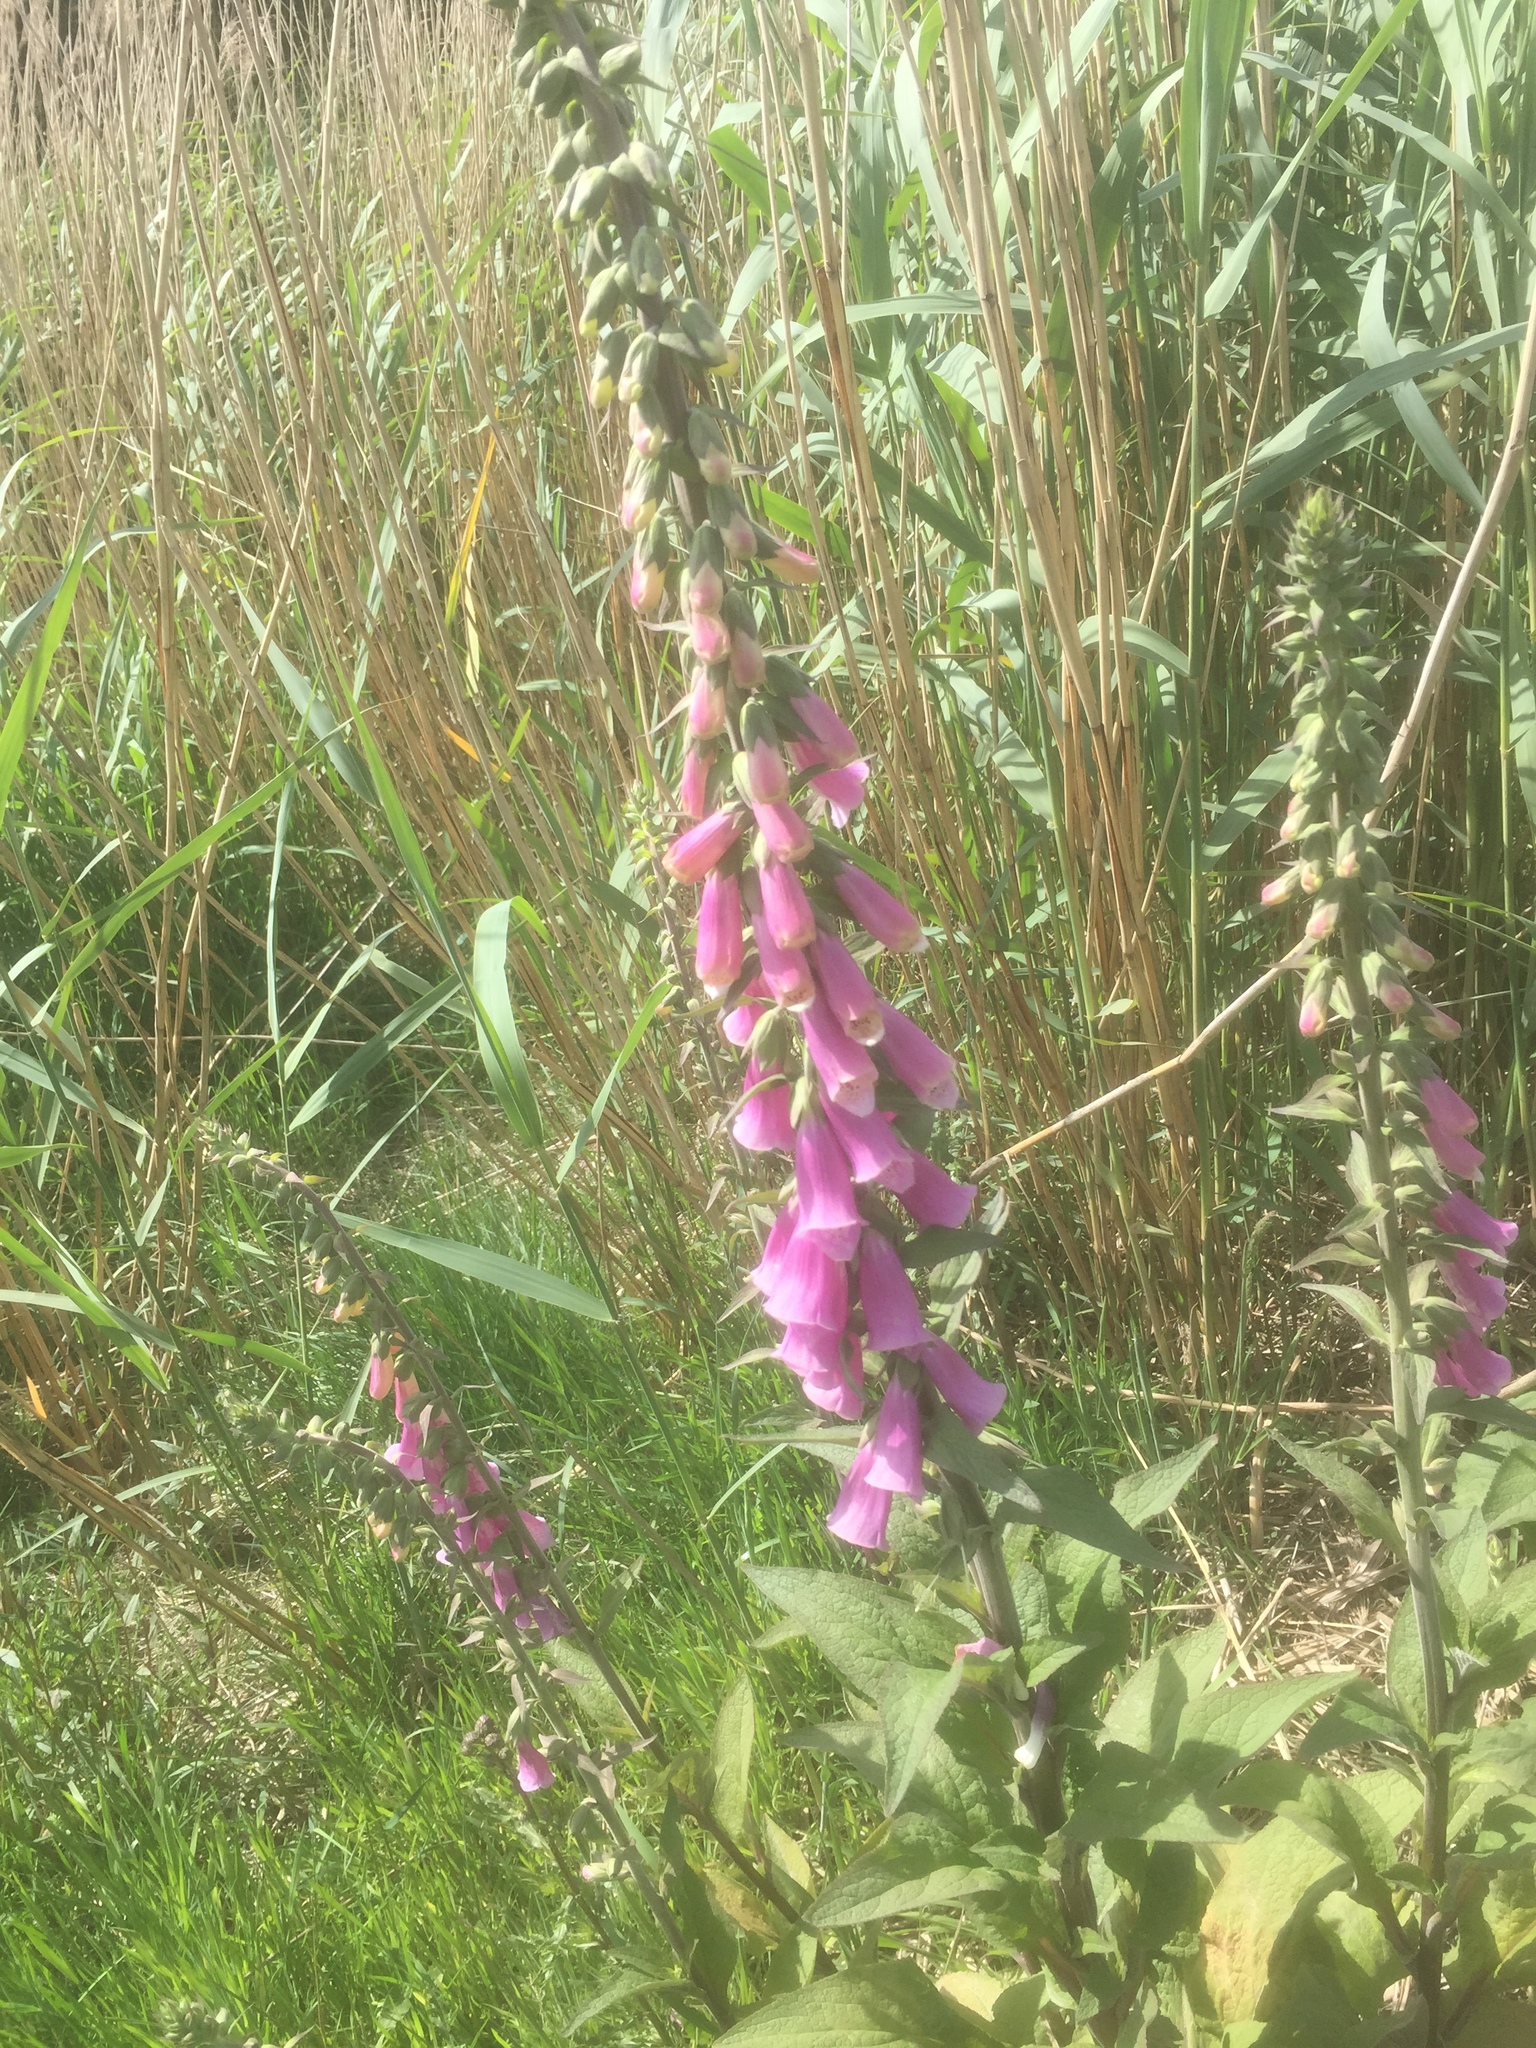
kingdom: Plantae
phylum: Tracheophyta
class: Magnoliopsida
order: Lamiales
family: Plantaginaceae
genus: Digitalis
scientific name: Digitalis purpurea
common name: Foxglove
